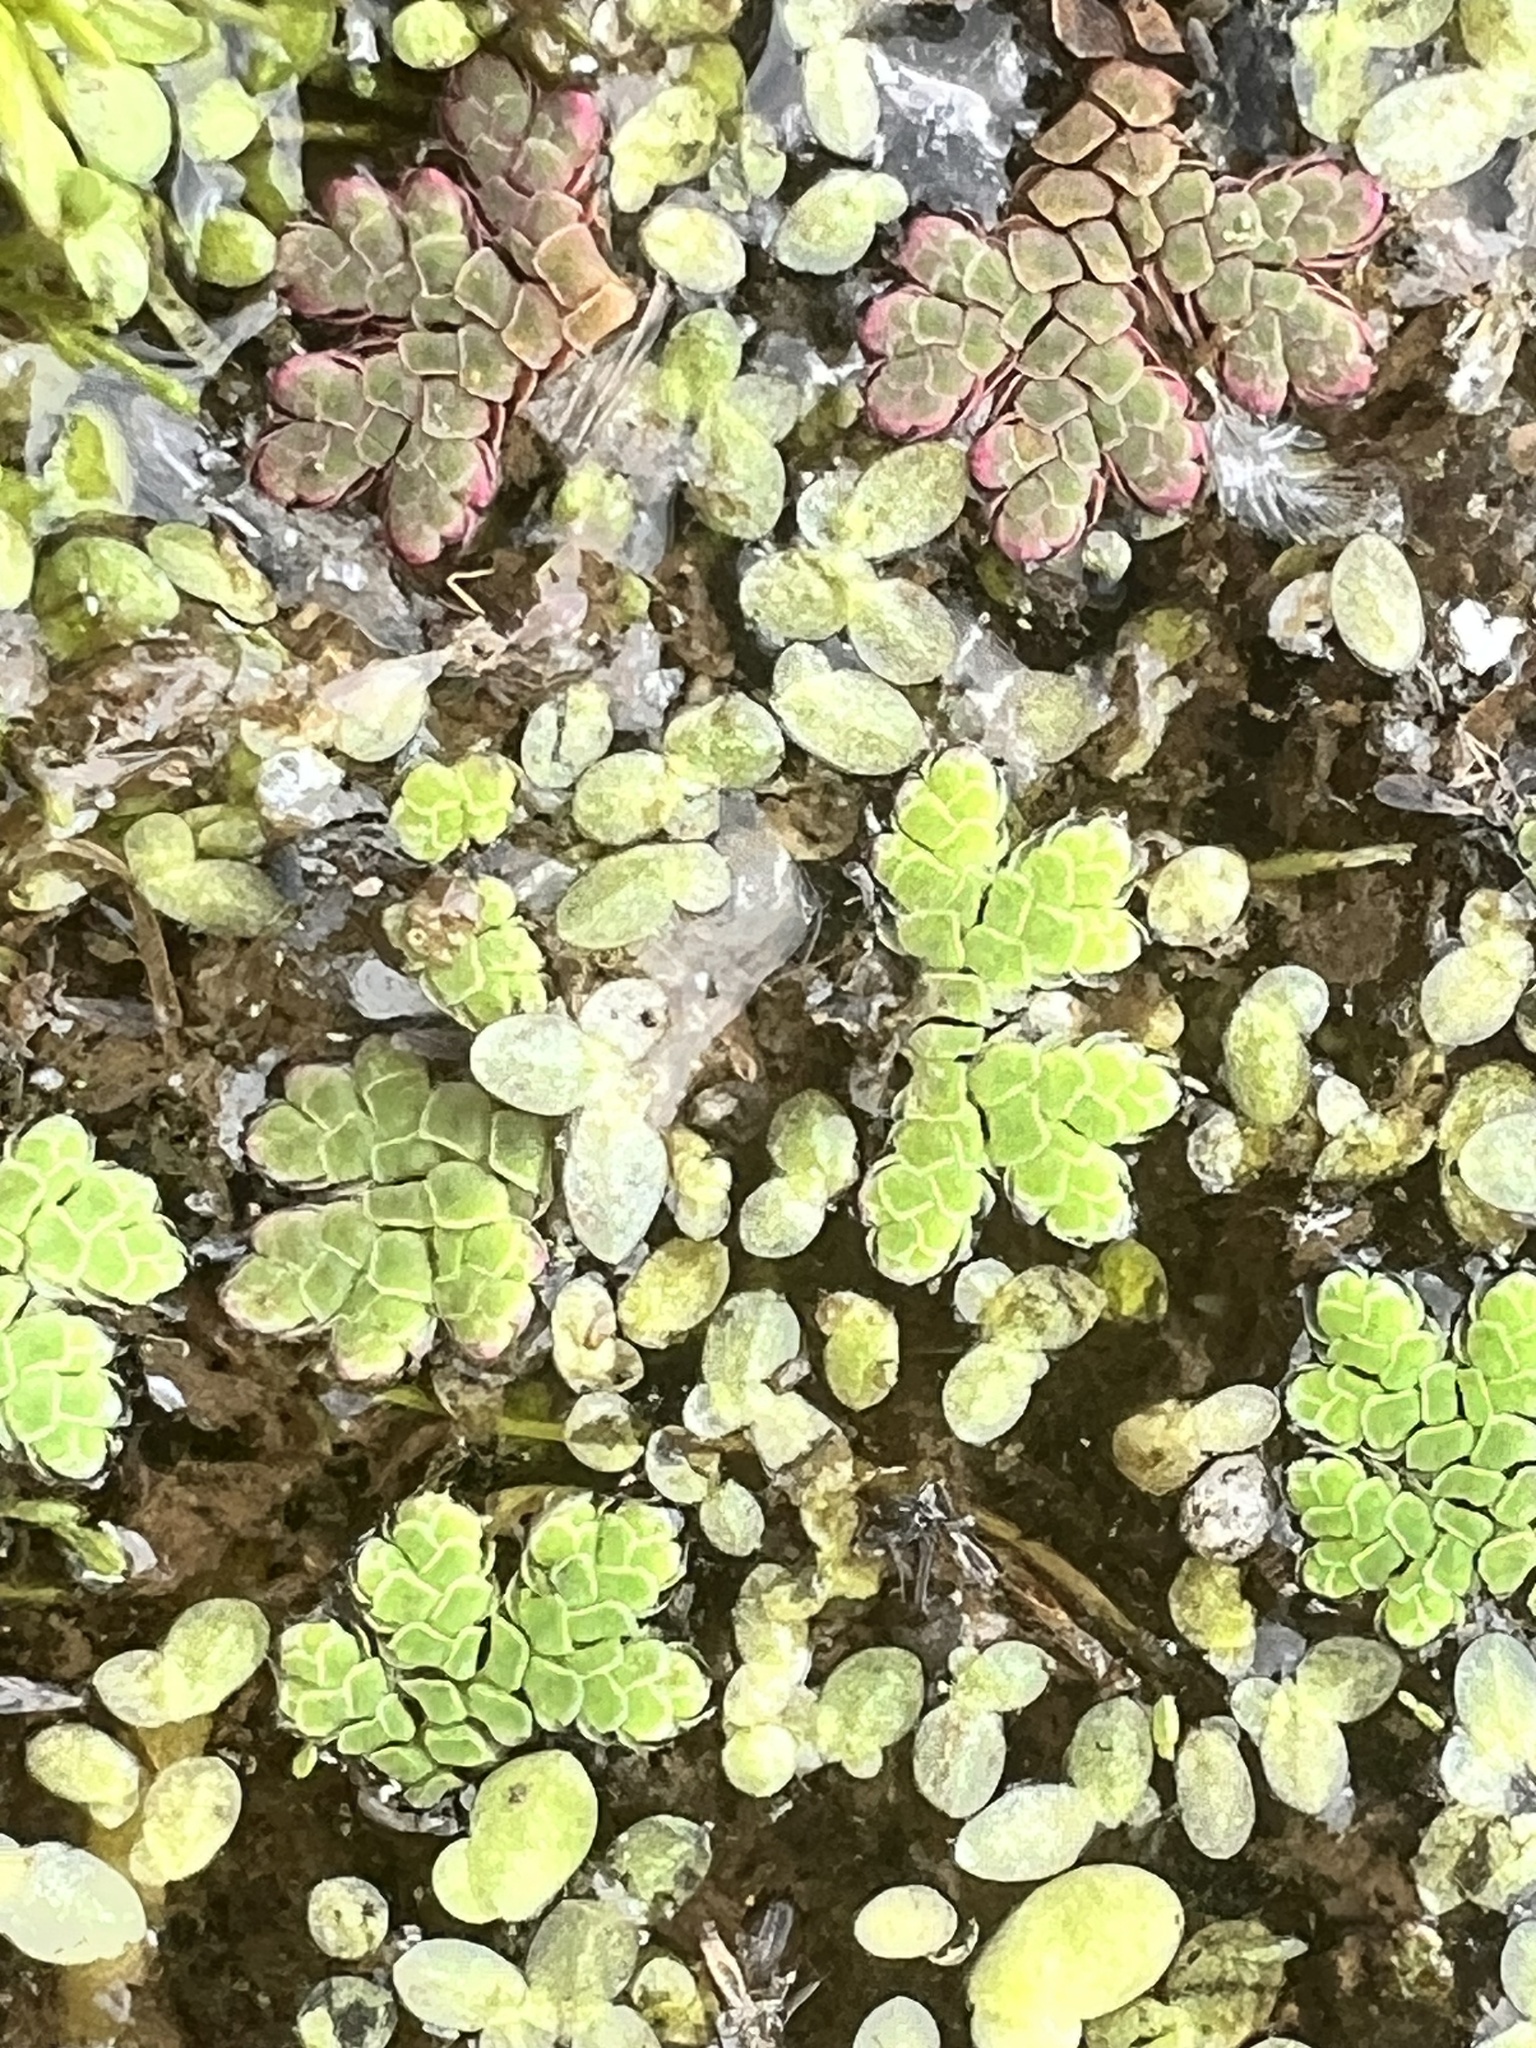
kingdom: Plantae
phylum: Tracheophyta
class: Polypodiopsida
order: Salviniales
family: Salviniaceae
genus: Azolla
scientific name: Azolla rubra
